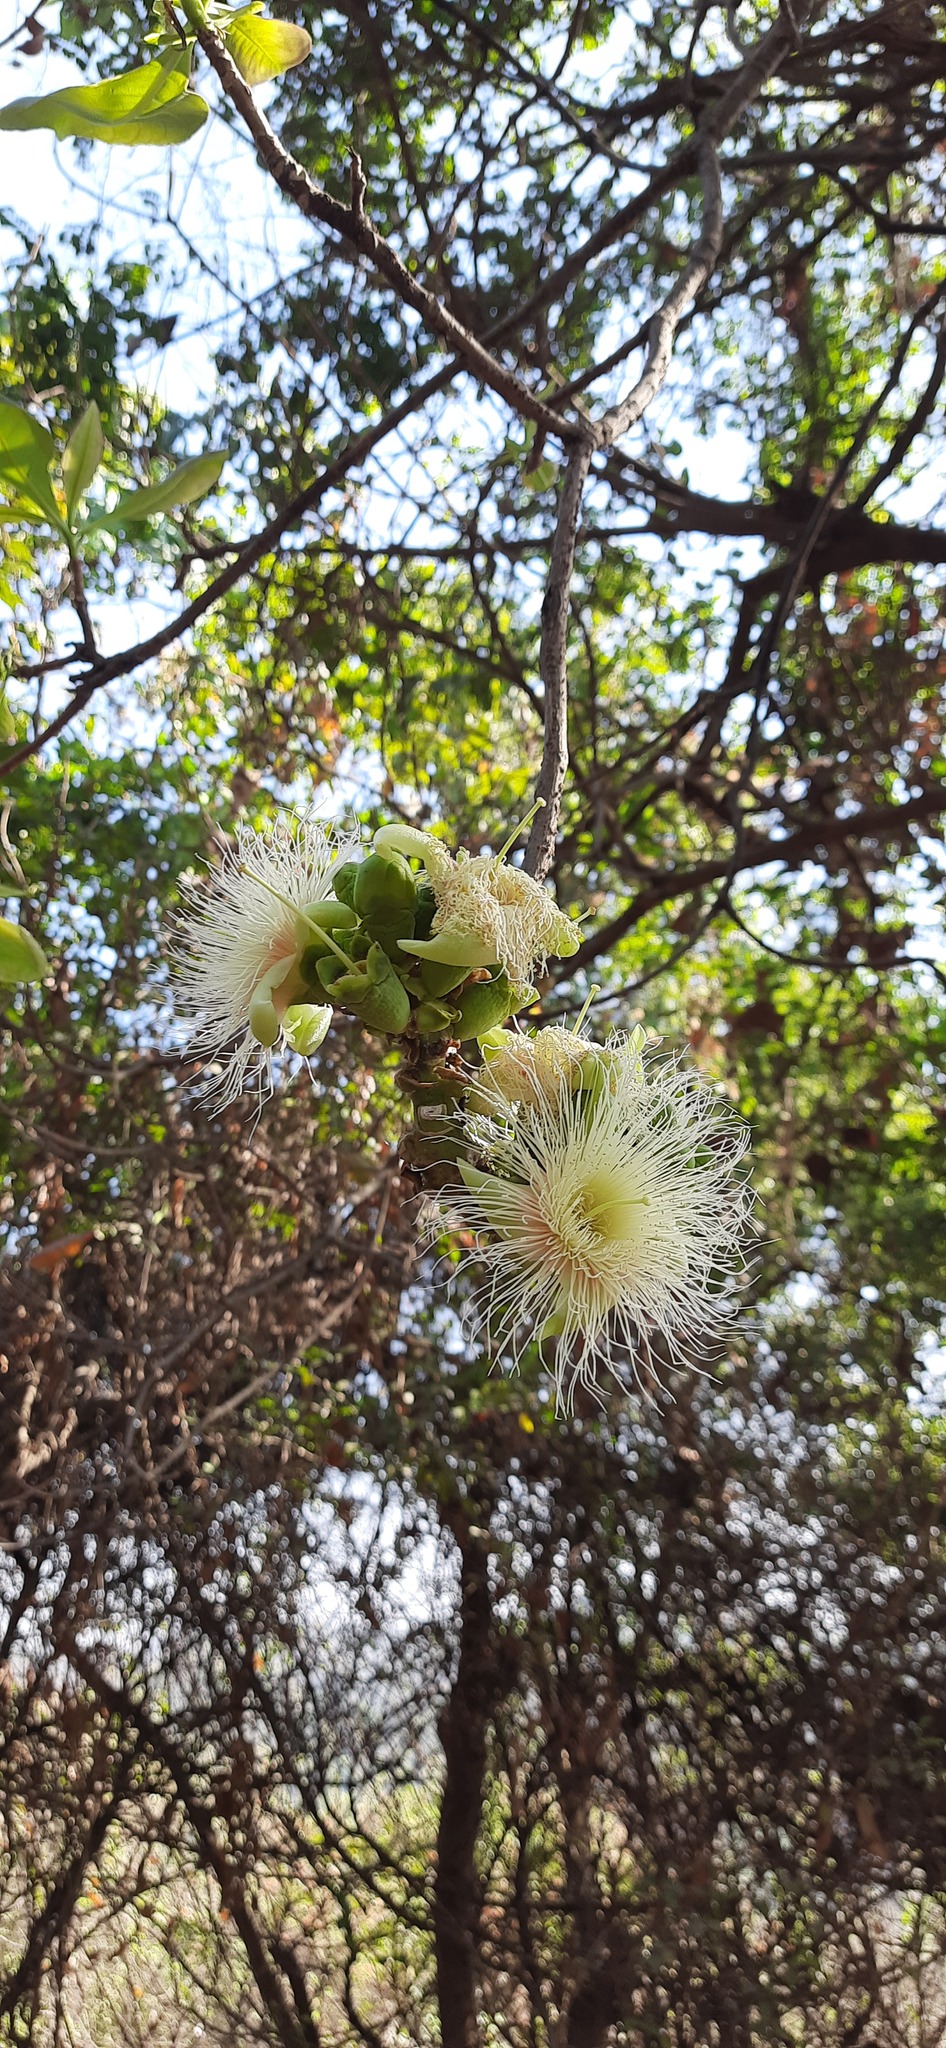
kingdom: Plantae
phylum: Tracheophyta
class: Magnoliopsida
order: Ericales
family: Lecythidaceae
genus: Careya
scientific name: Careya arborea
